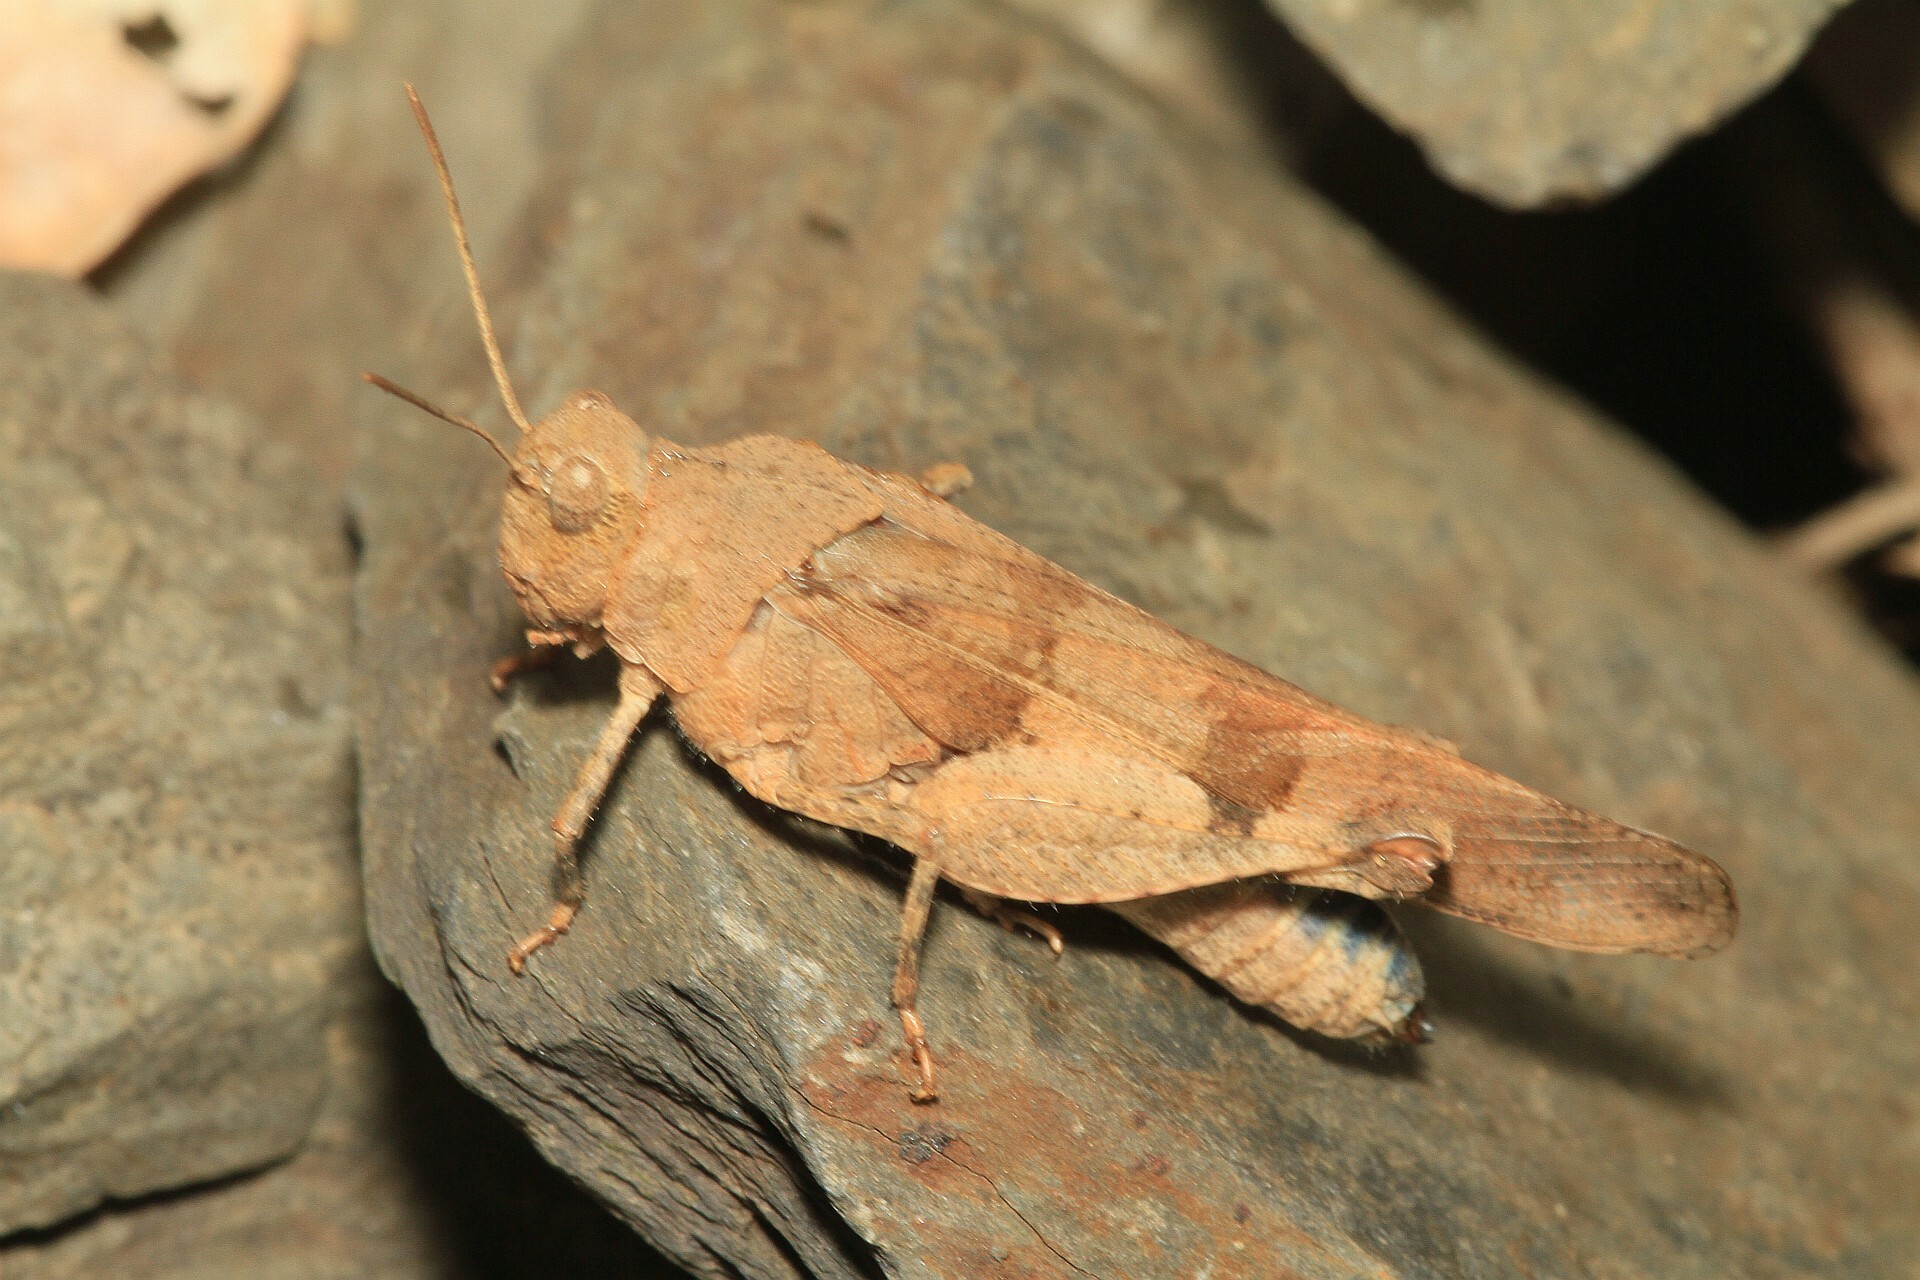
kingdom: Animalia
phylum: Arthropoda
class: Insecta
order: Orthoptera
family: Acrididae
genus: Oedipoda
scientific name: Oedipoda caerulescens
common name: Blue-winged grasshopper
